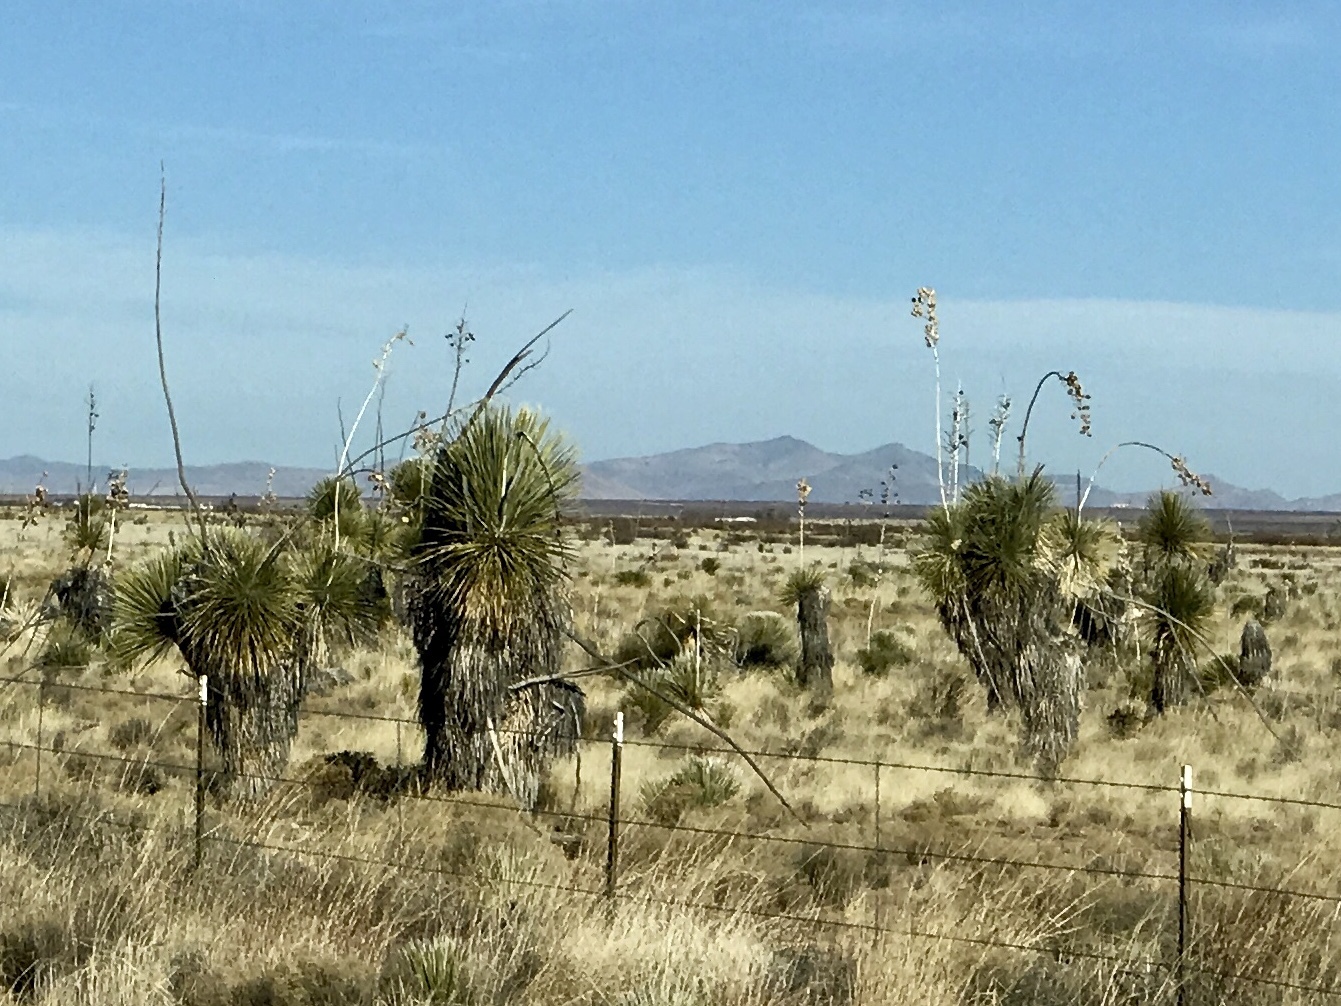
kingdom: Plantae
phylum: Tracheophyta
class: Liliopsida
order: Asparagales
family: Asparagaceae
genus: Yucca
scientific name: Yucca elata
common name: Palmella
